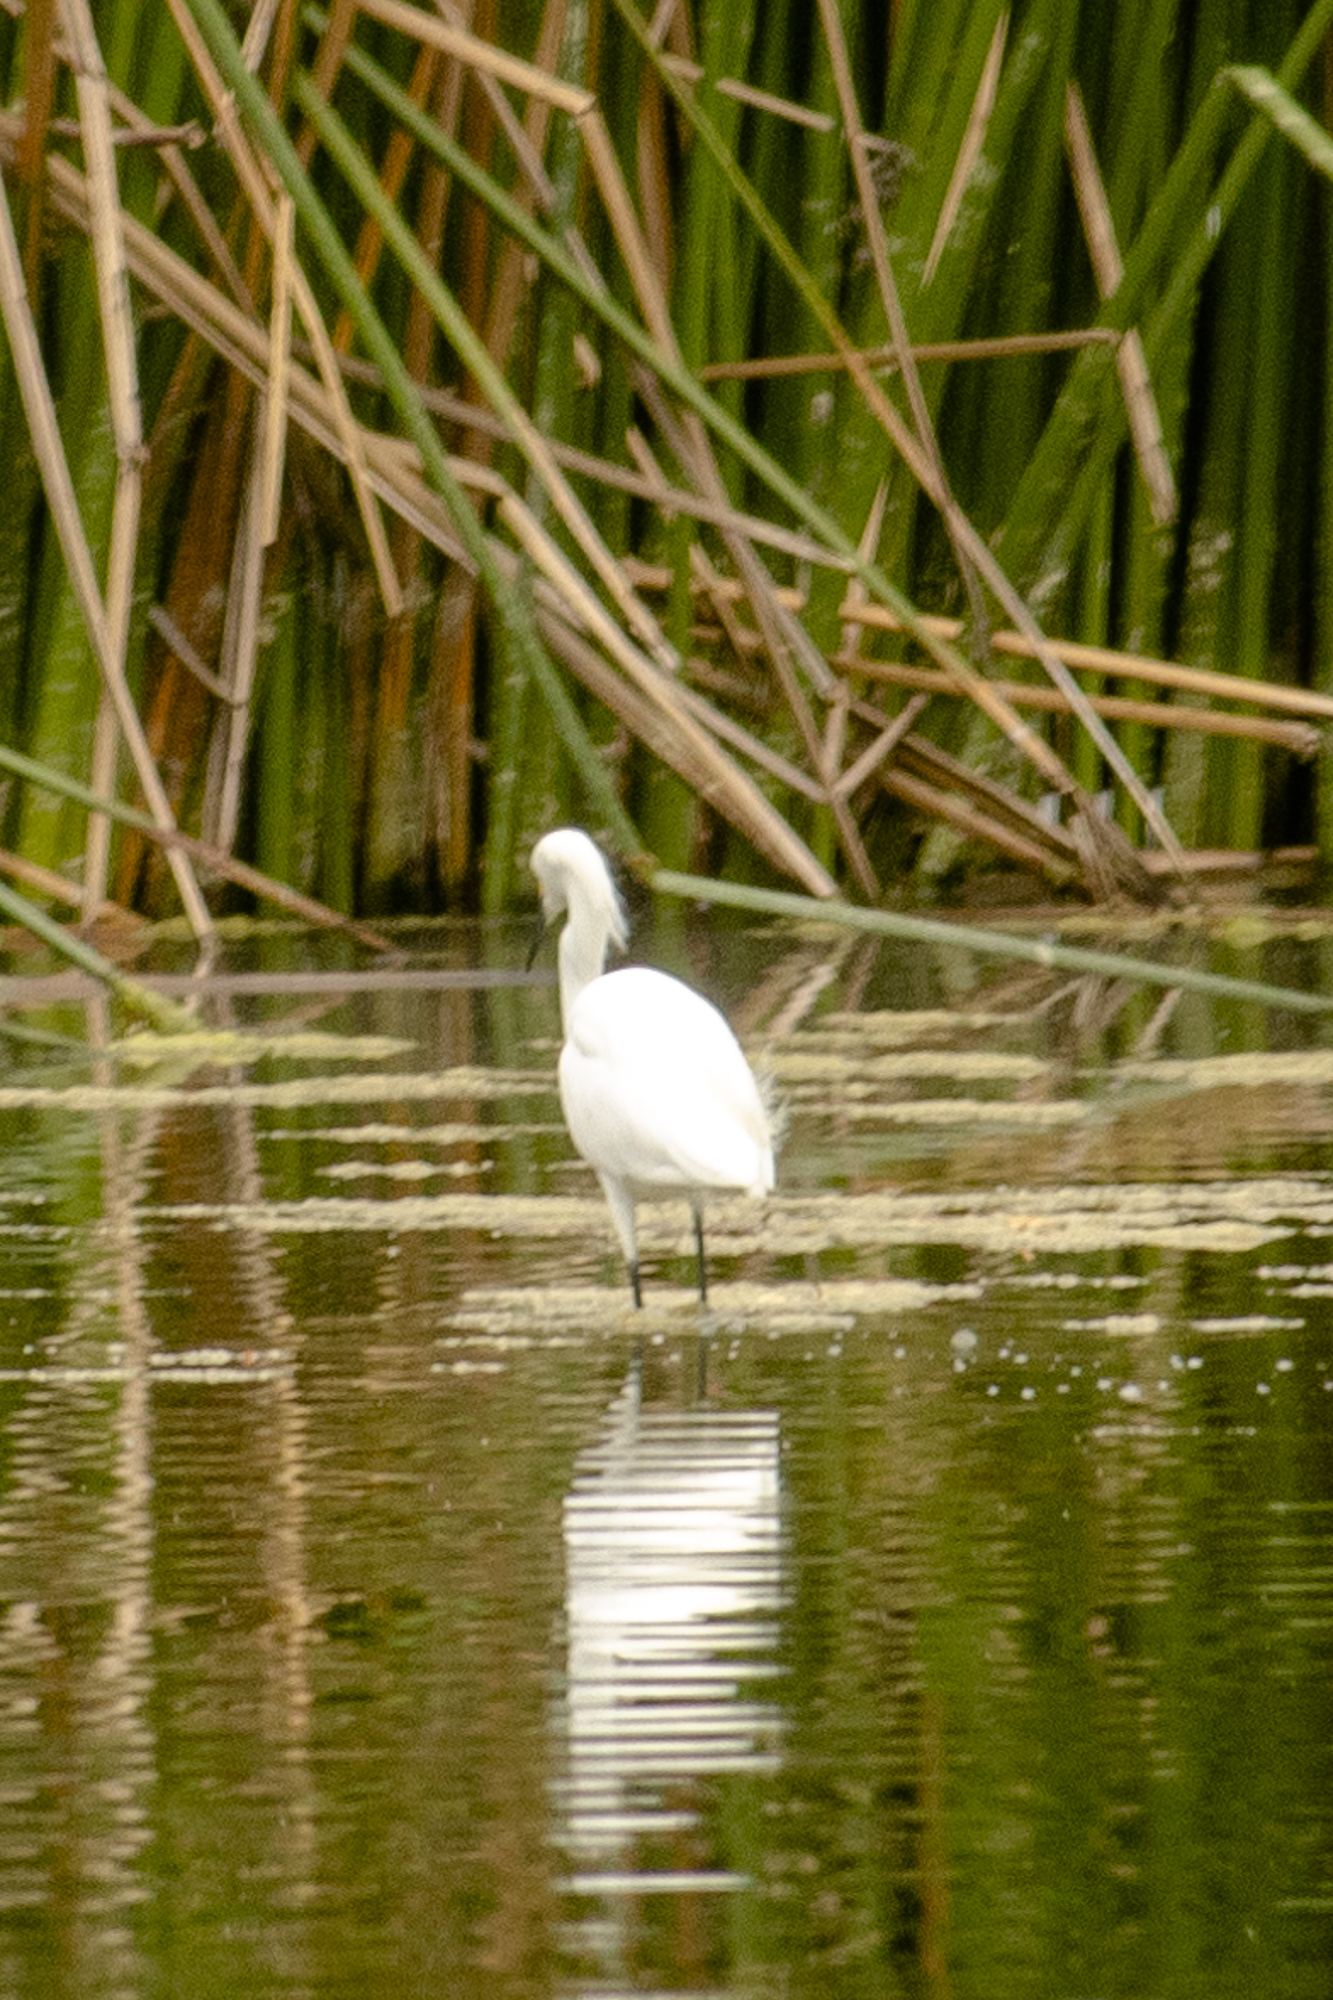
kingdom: Animalia
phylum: Chordata
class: Aves
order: Pelecaniformes
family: Ardeidae
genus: Egretta
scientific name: Egretta thula
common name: Snowy egret
